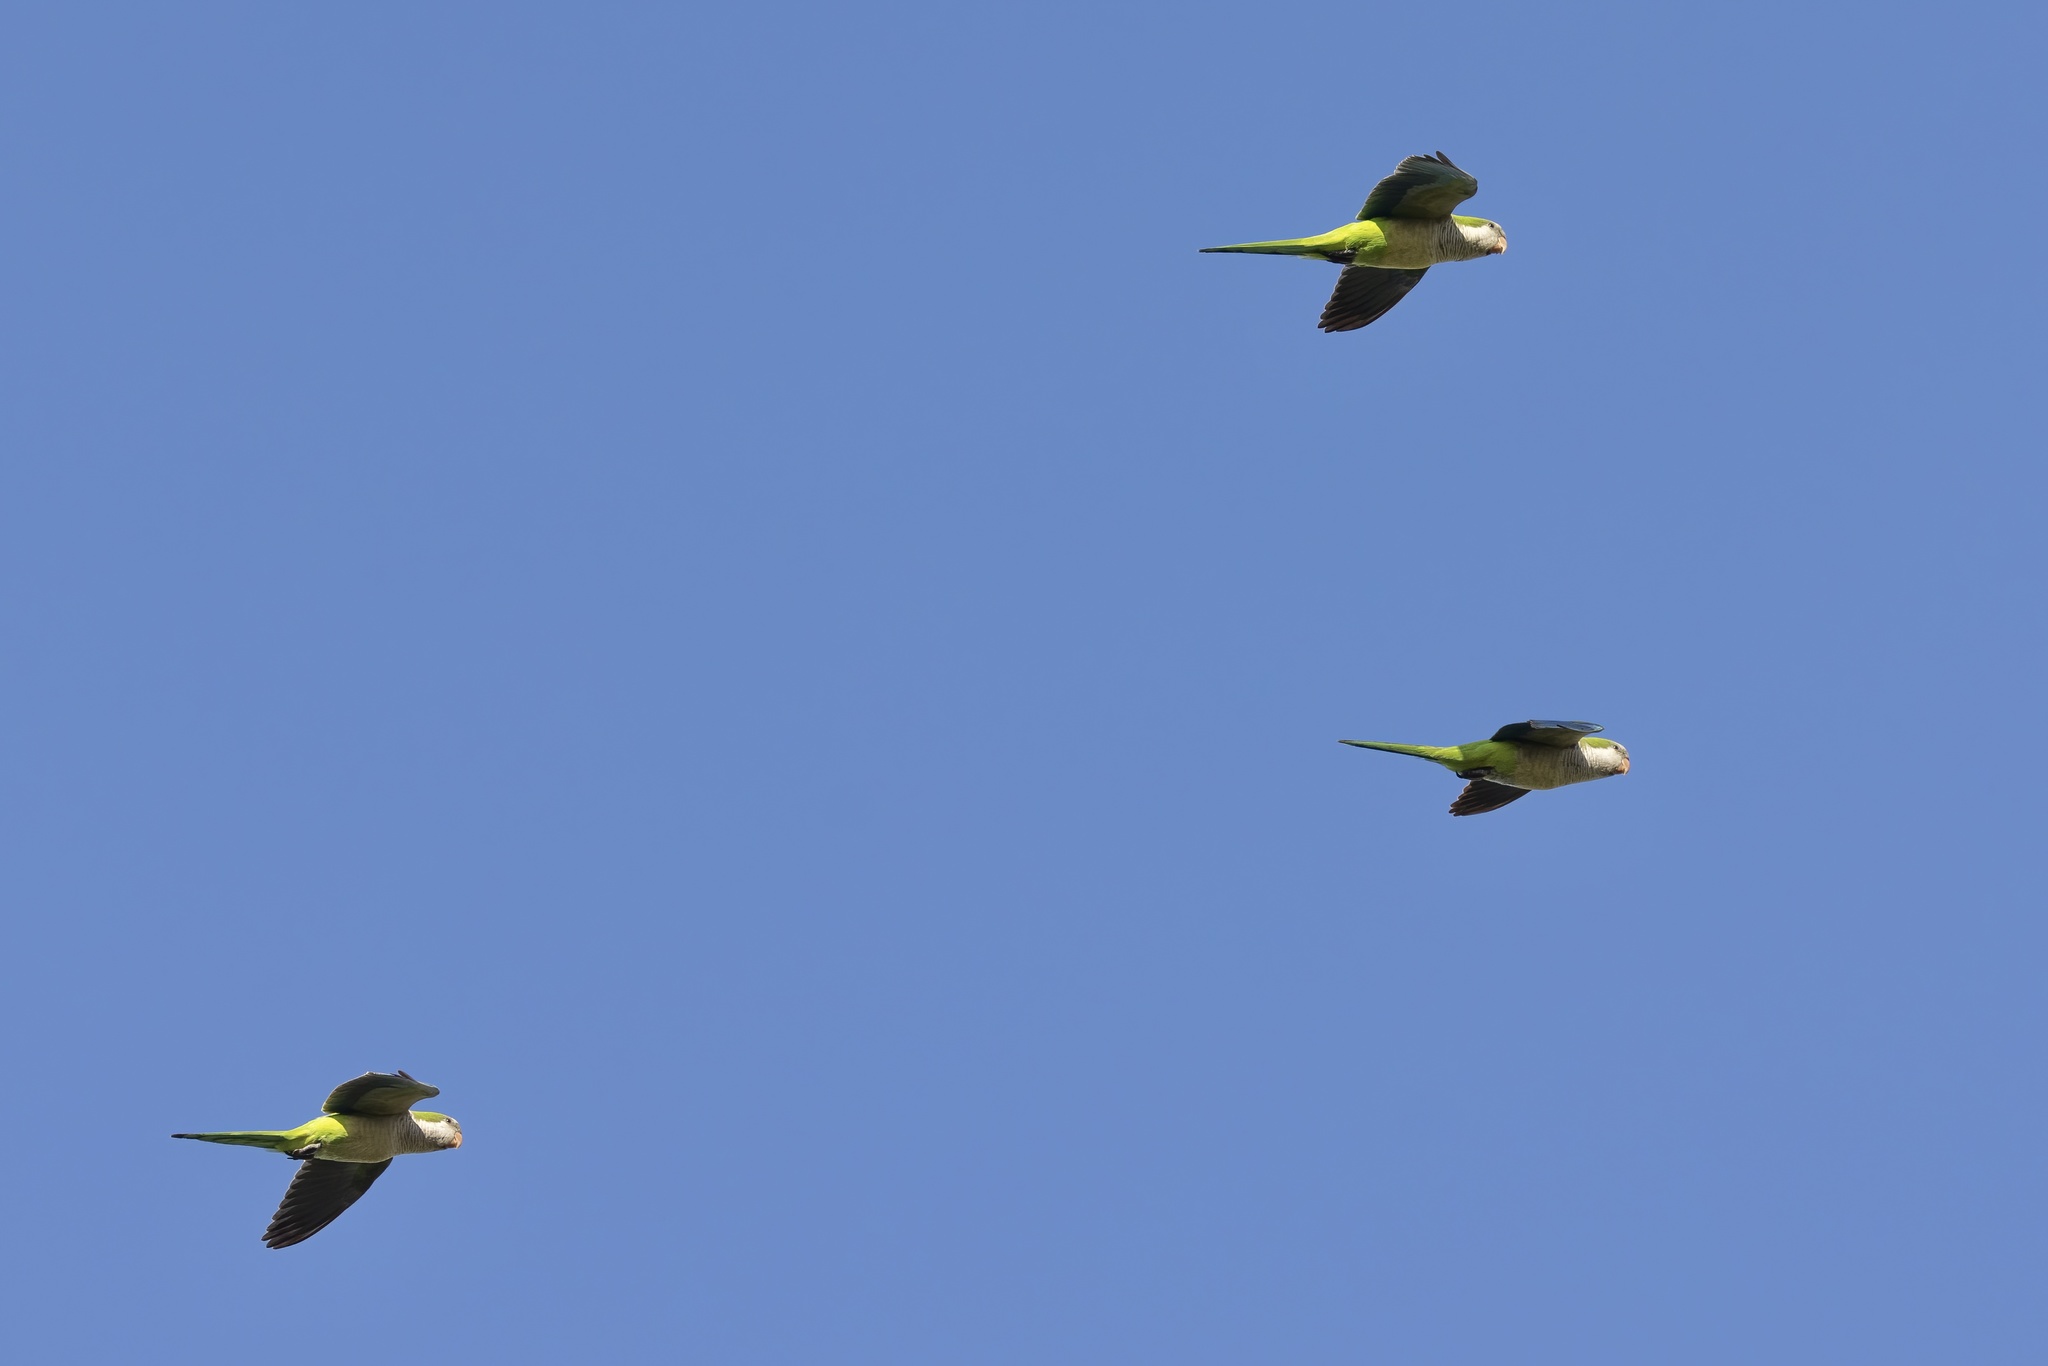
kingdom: Animalia
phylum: Chordata
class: Aves
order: Psittaciformes
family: Psittacidae
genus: Myiopsitta
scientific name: Myiopsitta monachus
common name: Monk parakeet
